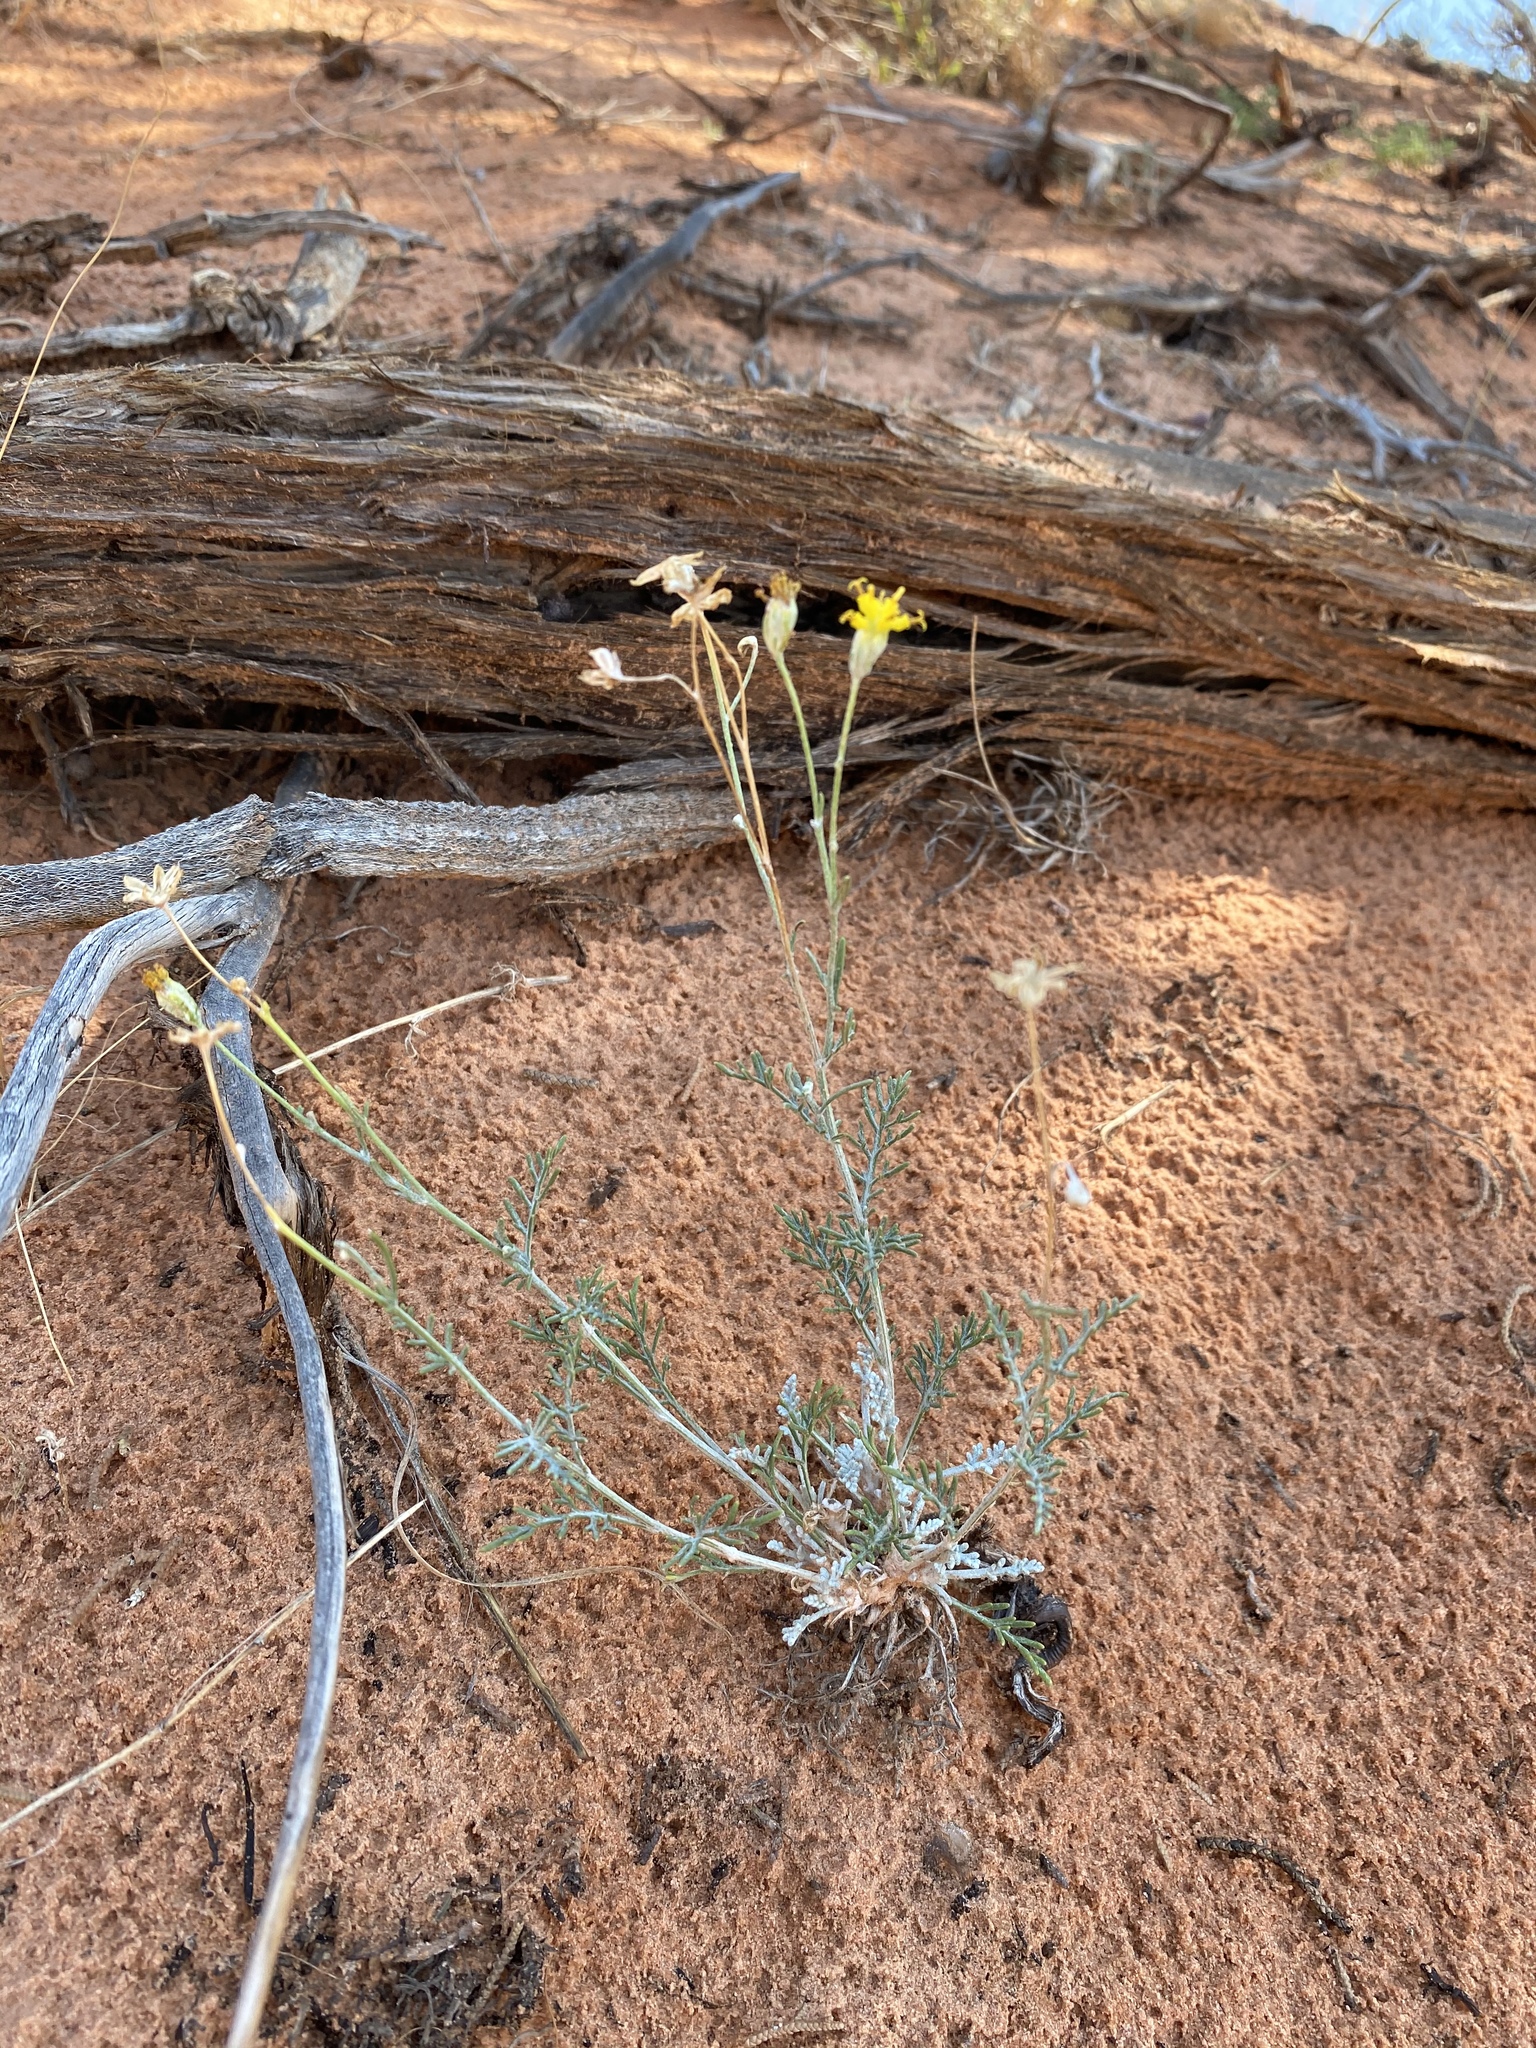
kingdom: Plantae
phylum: Tracheophyta
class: Magnoliopsida
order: Asterales
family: Asteraceae
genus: Hymenopappus
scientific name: Hymenopappus filifolius
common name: Columbia cutleaf
